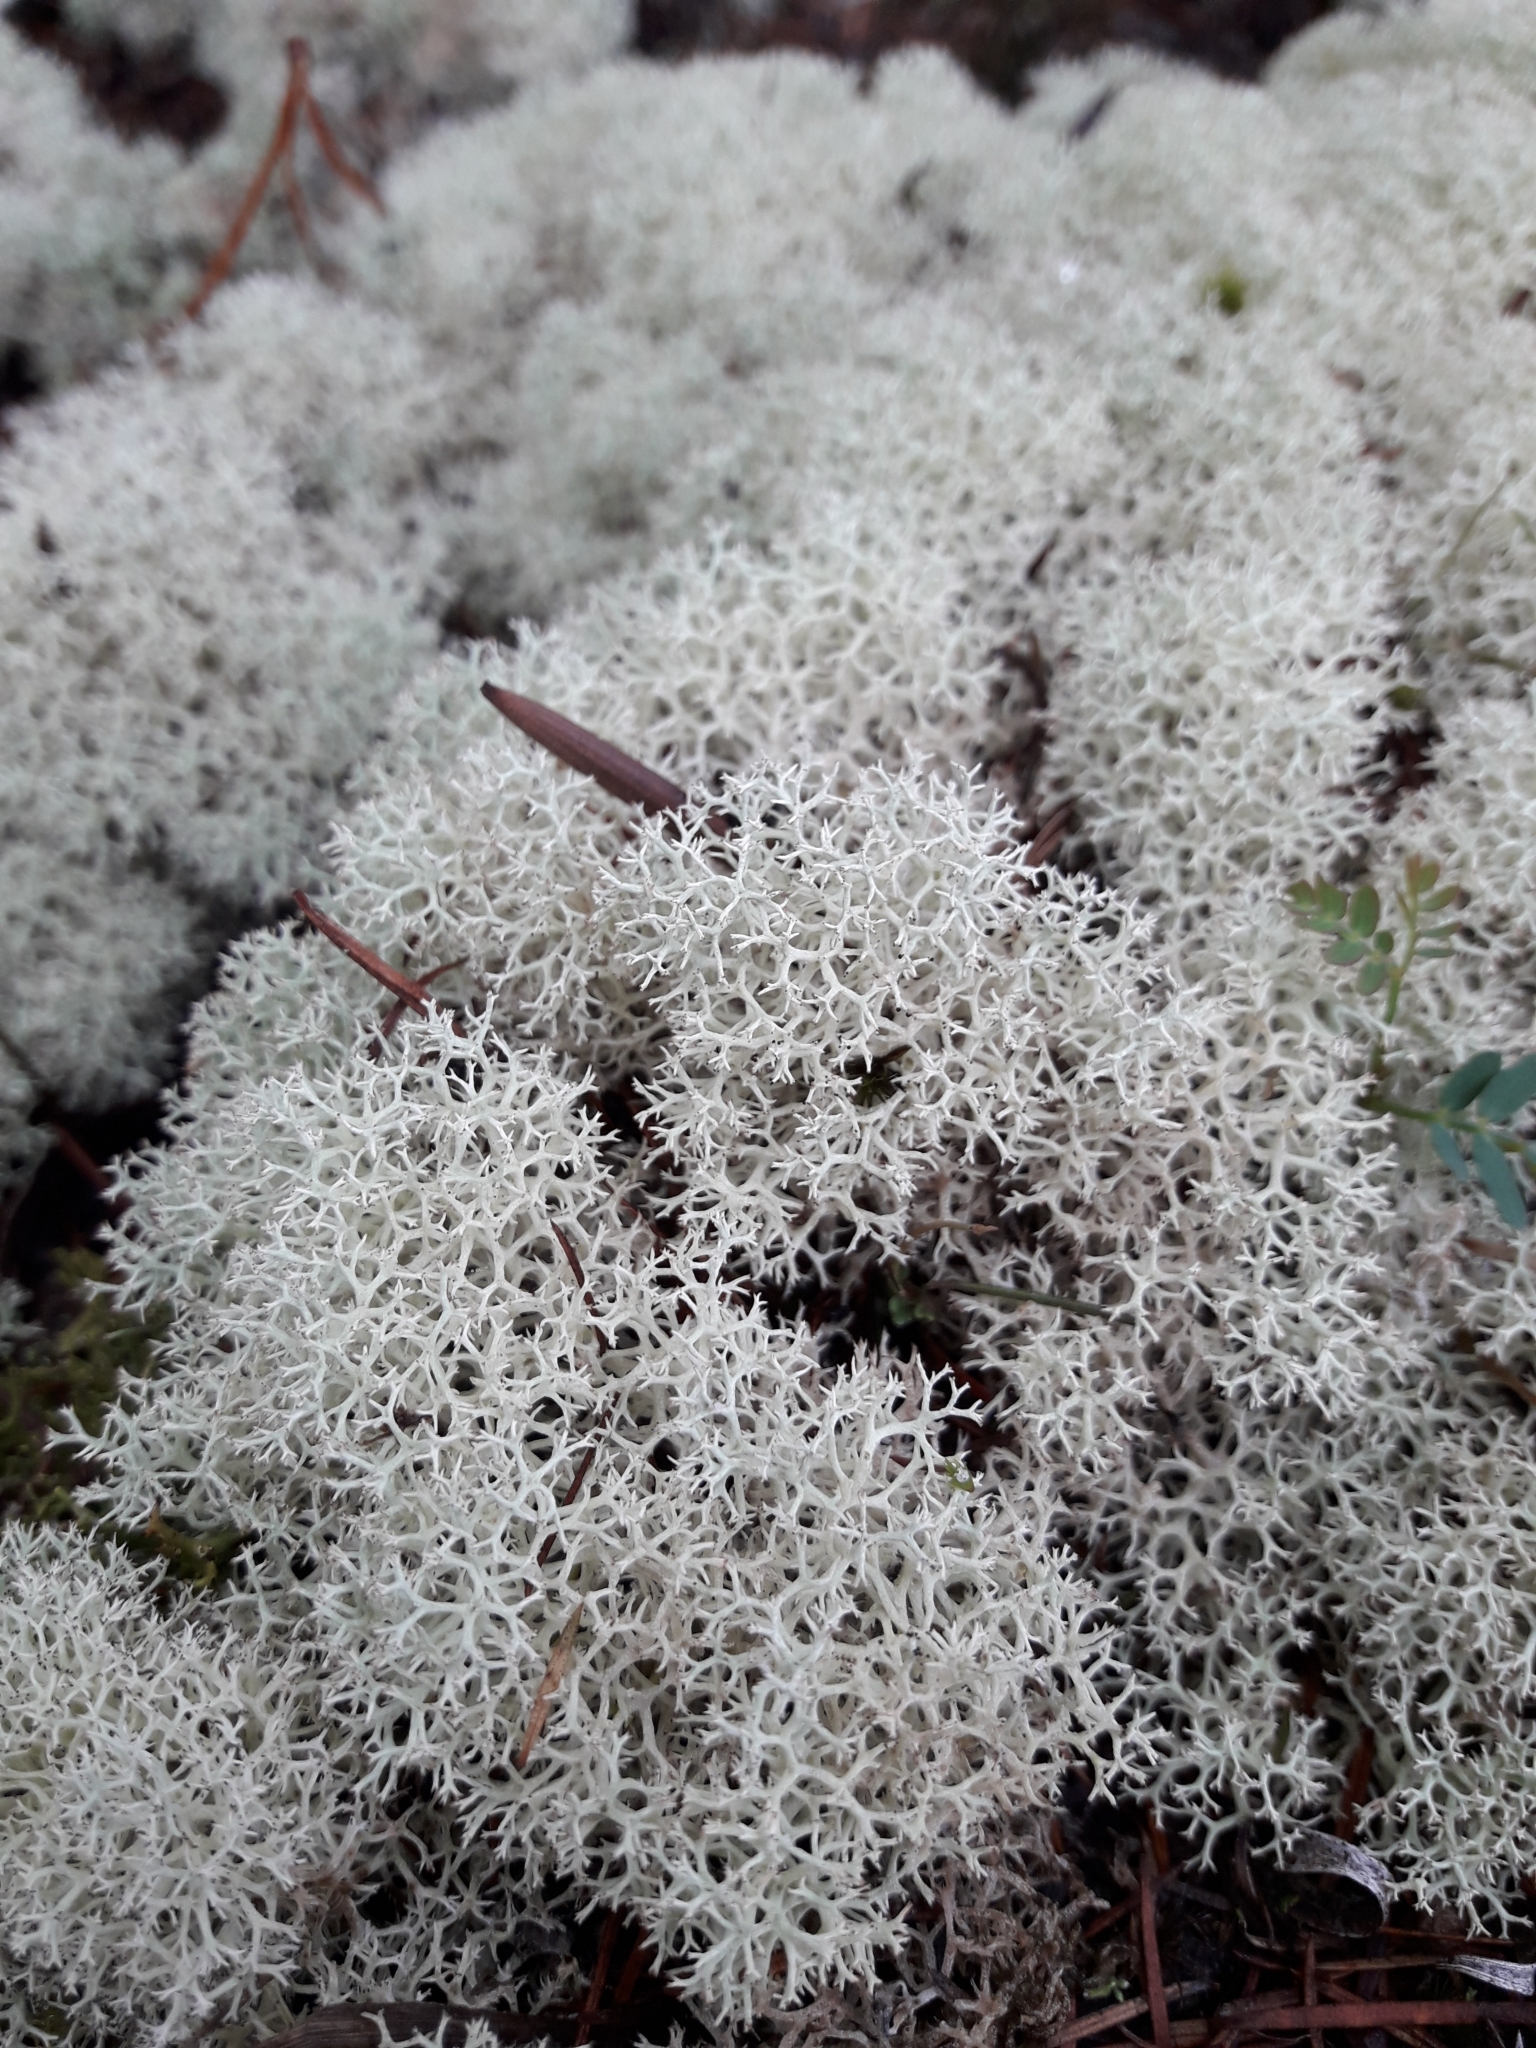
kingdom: Fungi
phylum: Ascomycota
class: Lecanoromycetes
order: Lecanorales
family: Cladoniaceae
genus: Cladonia
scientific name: Cladonia confusa
